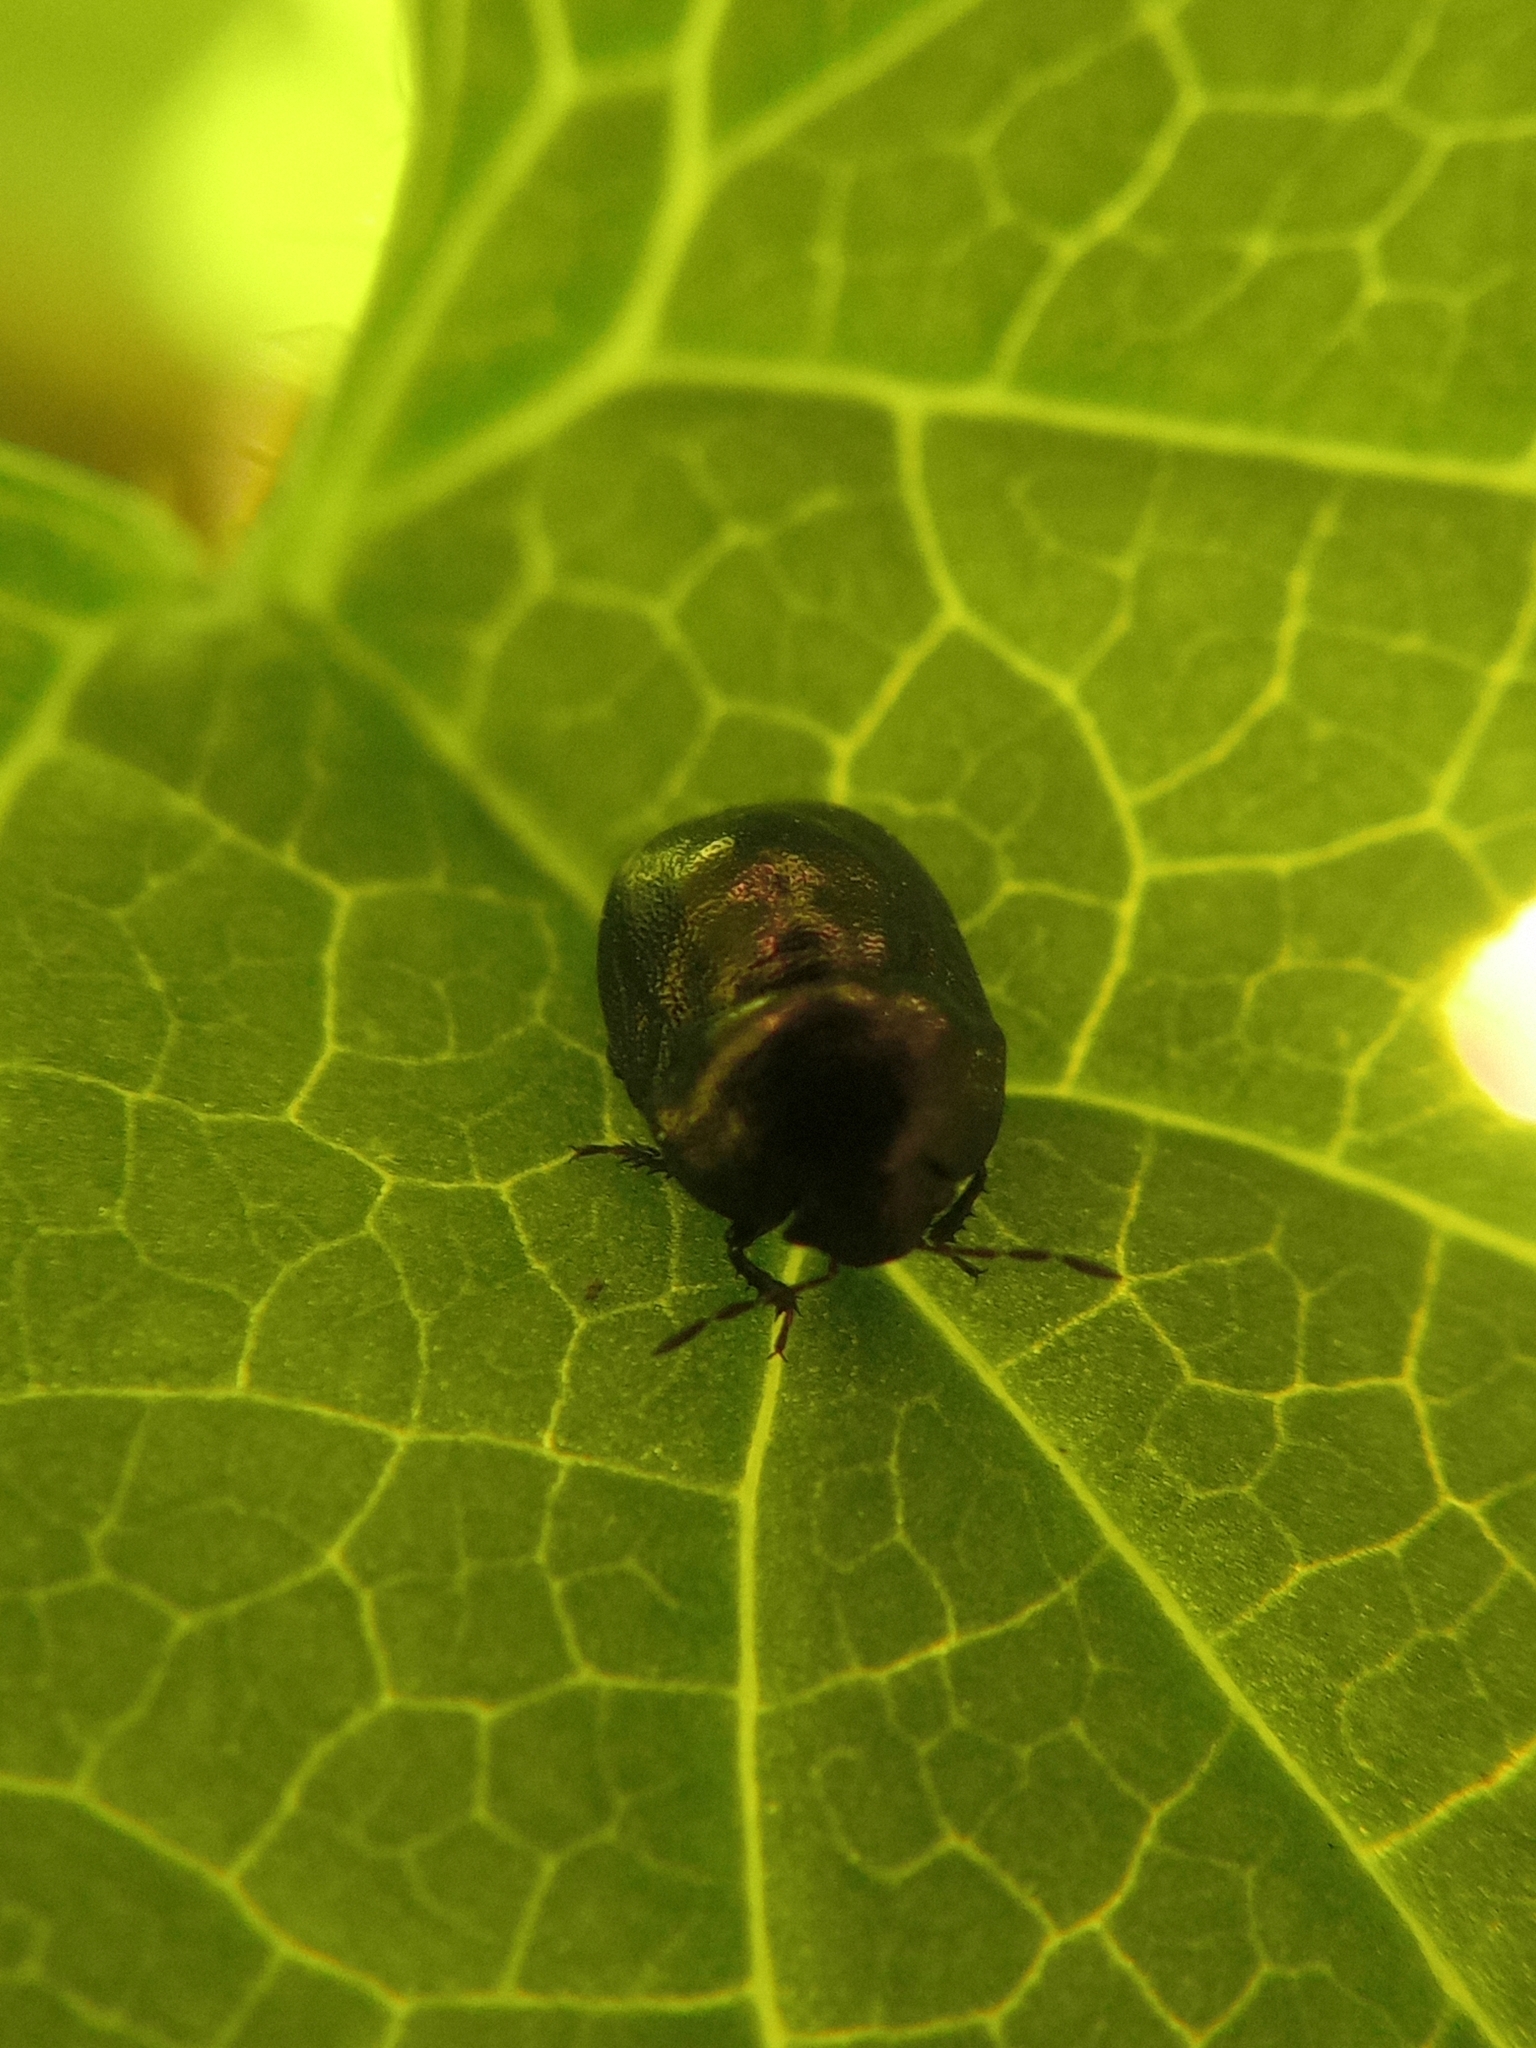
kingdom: Animalia
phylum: Arthropoda
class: Insecta
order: Hemiptera
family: Thyreocoridae
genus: Thyreocoris
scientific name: Thyreocoris scarabaeoides
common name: Negro bug
